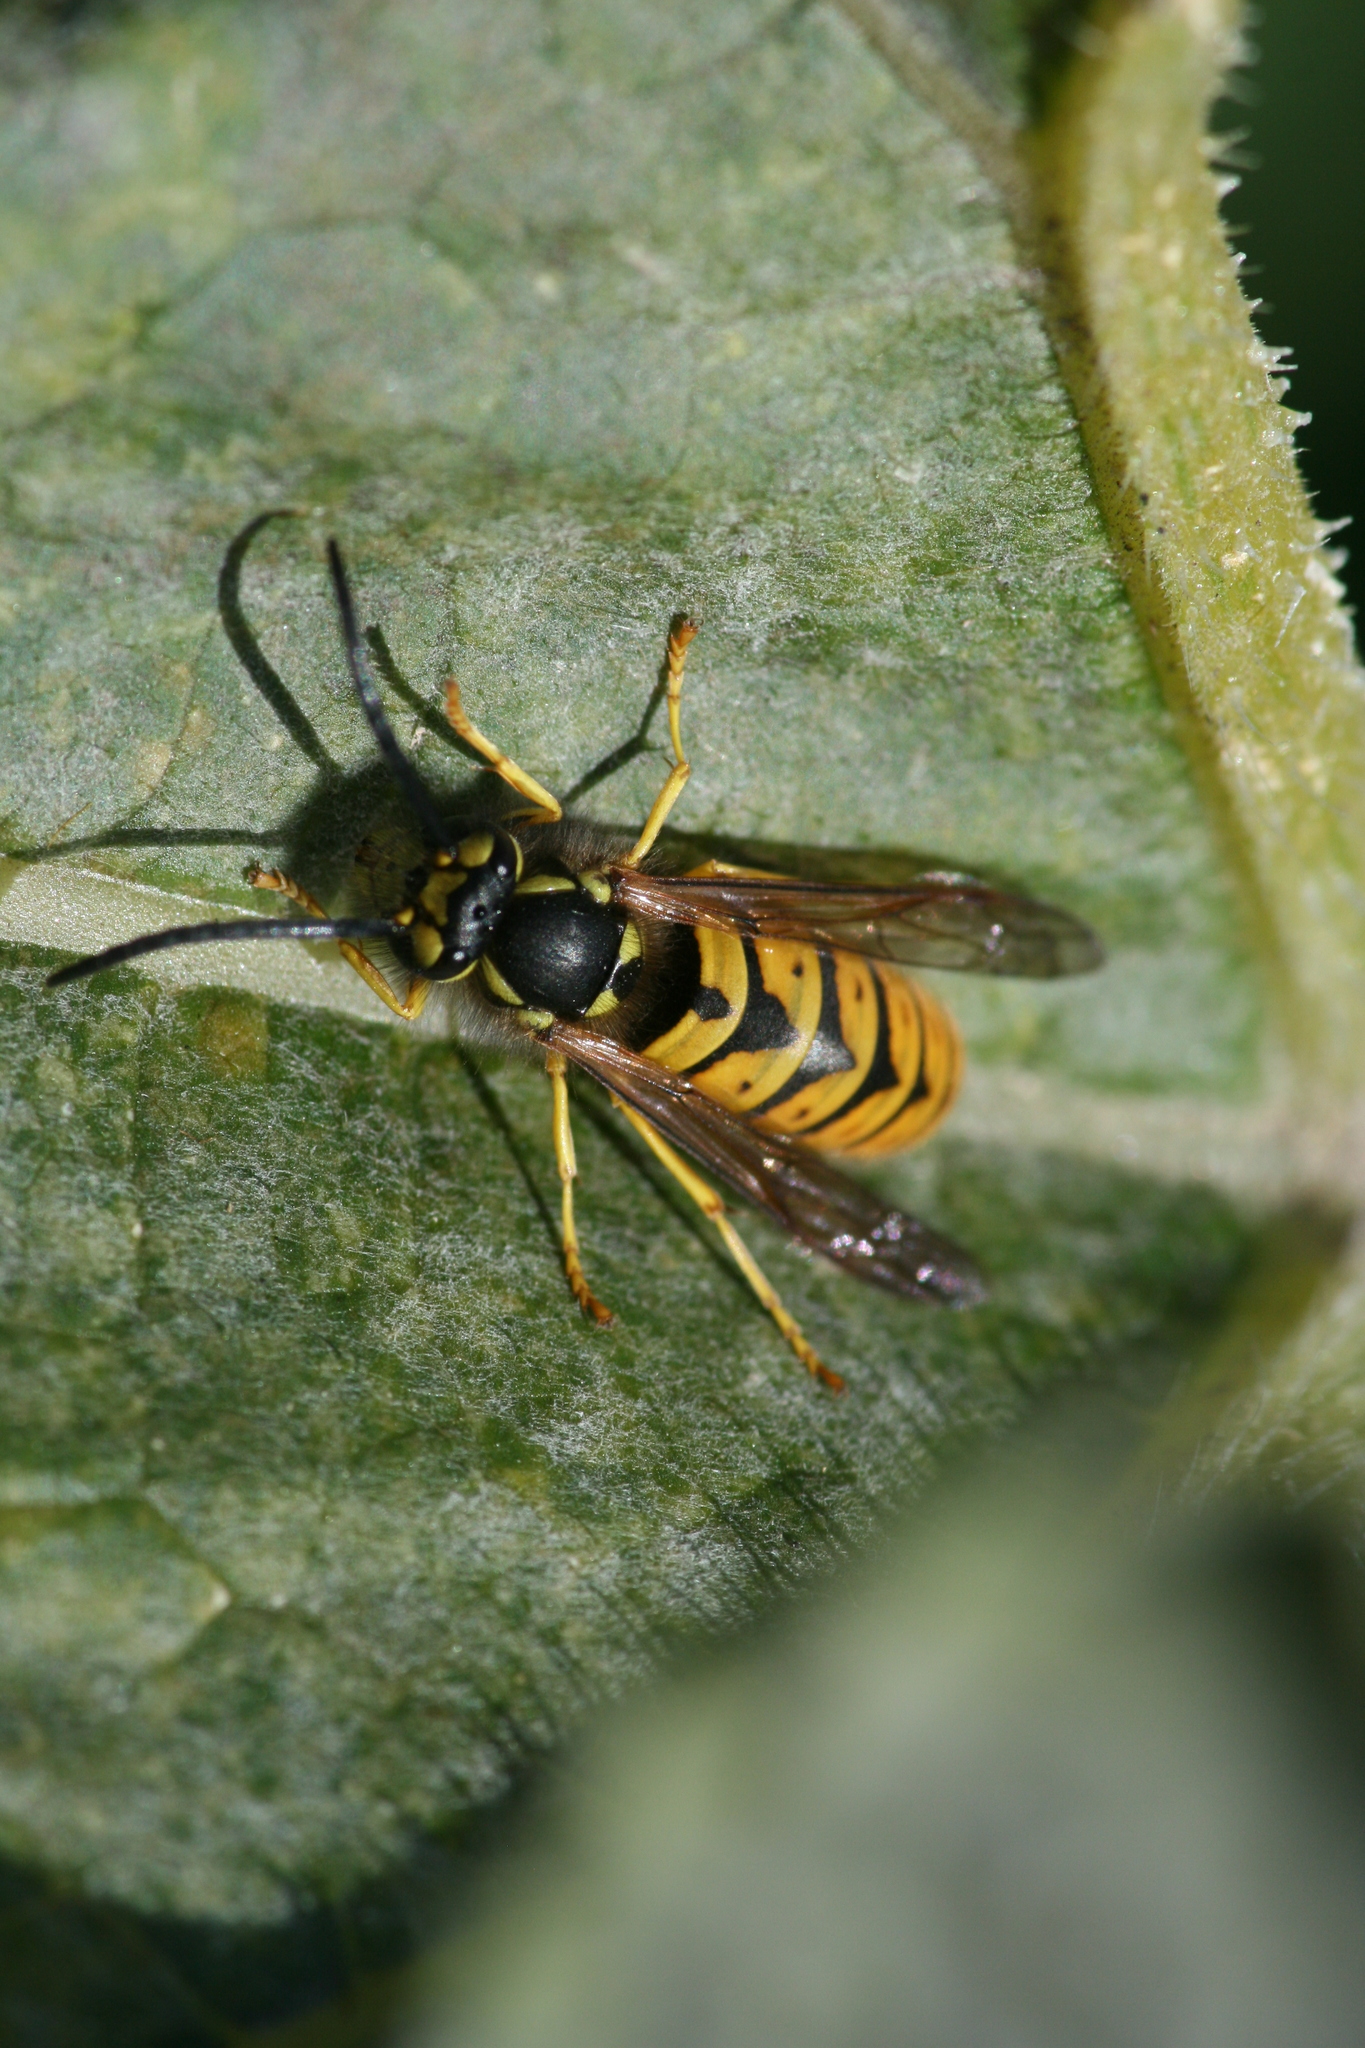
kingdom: Animalia
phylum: Arthropoda
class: Insecta
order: Hymenoptera
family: Vespidae
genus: Vespula
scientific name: Vespula germanica
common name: German wasp
